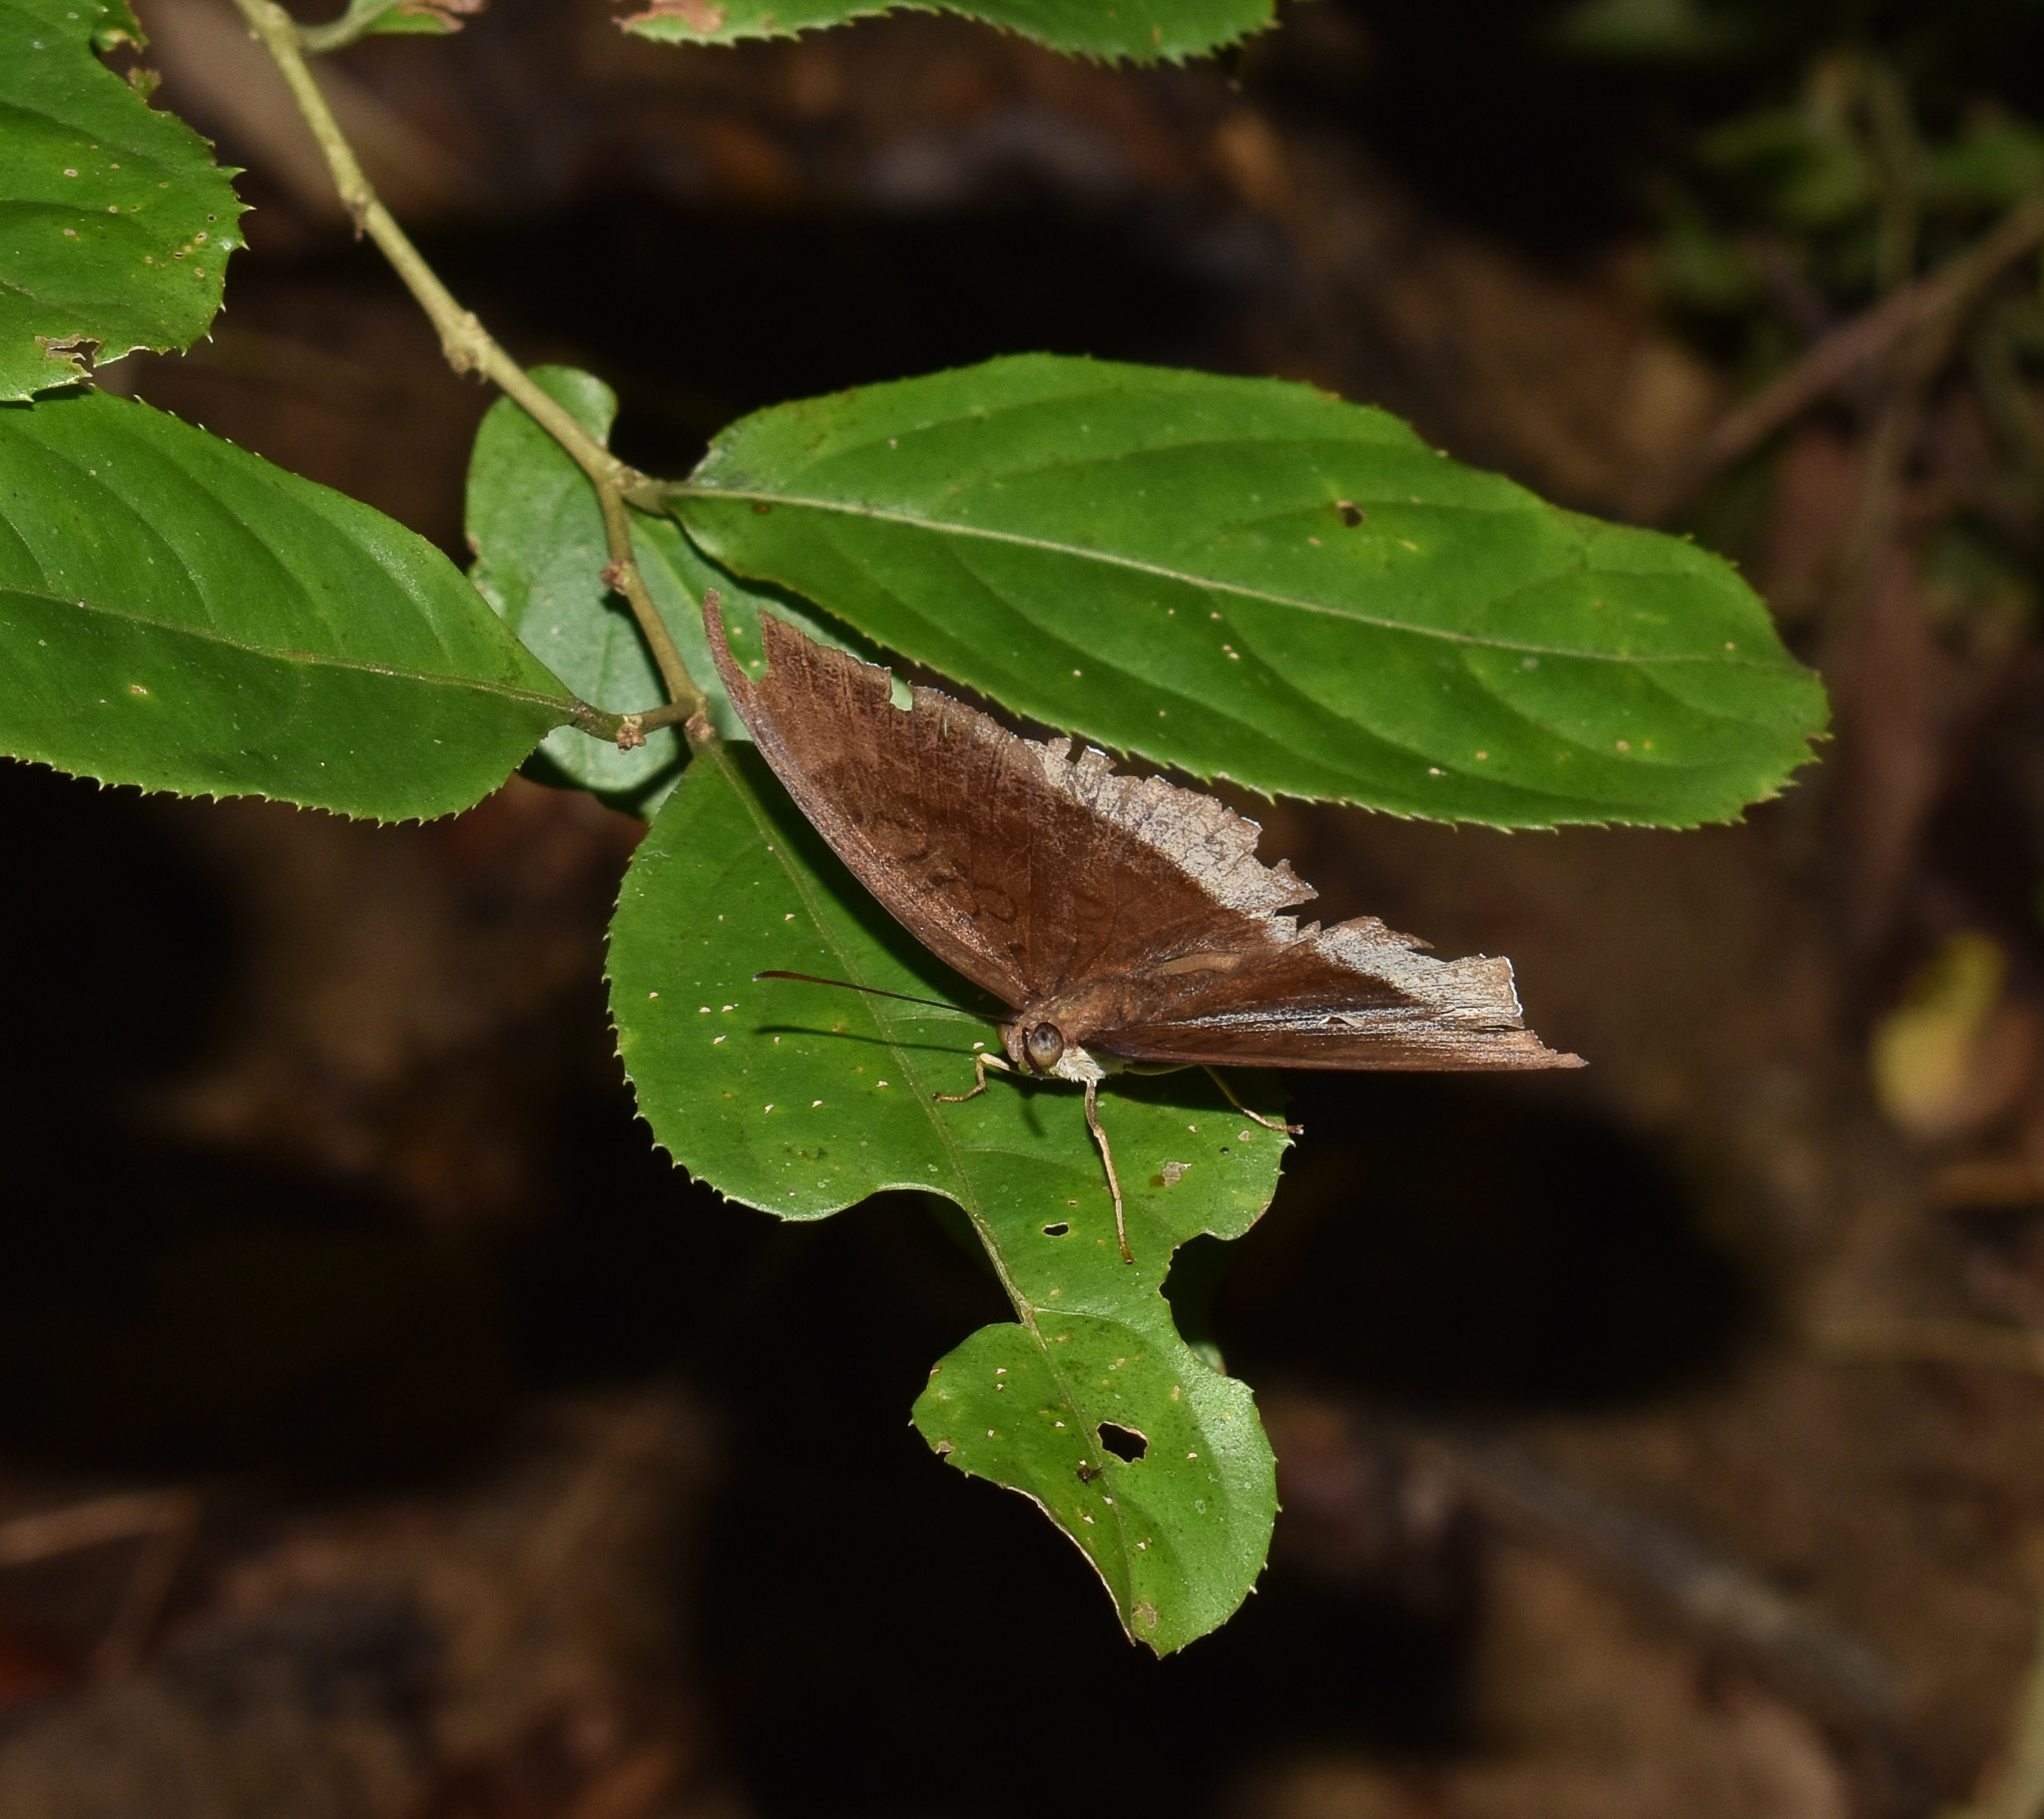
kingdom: Animalia
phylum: Arthropoda
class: Insecta
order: Lepidoptera
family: Nymphalidae
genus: Tanaecia
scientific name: Tanaecia lepidea
